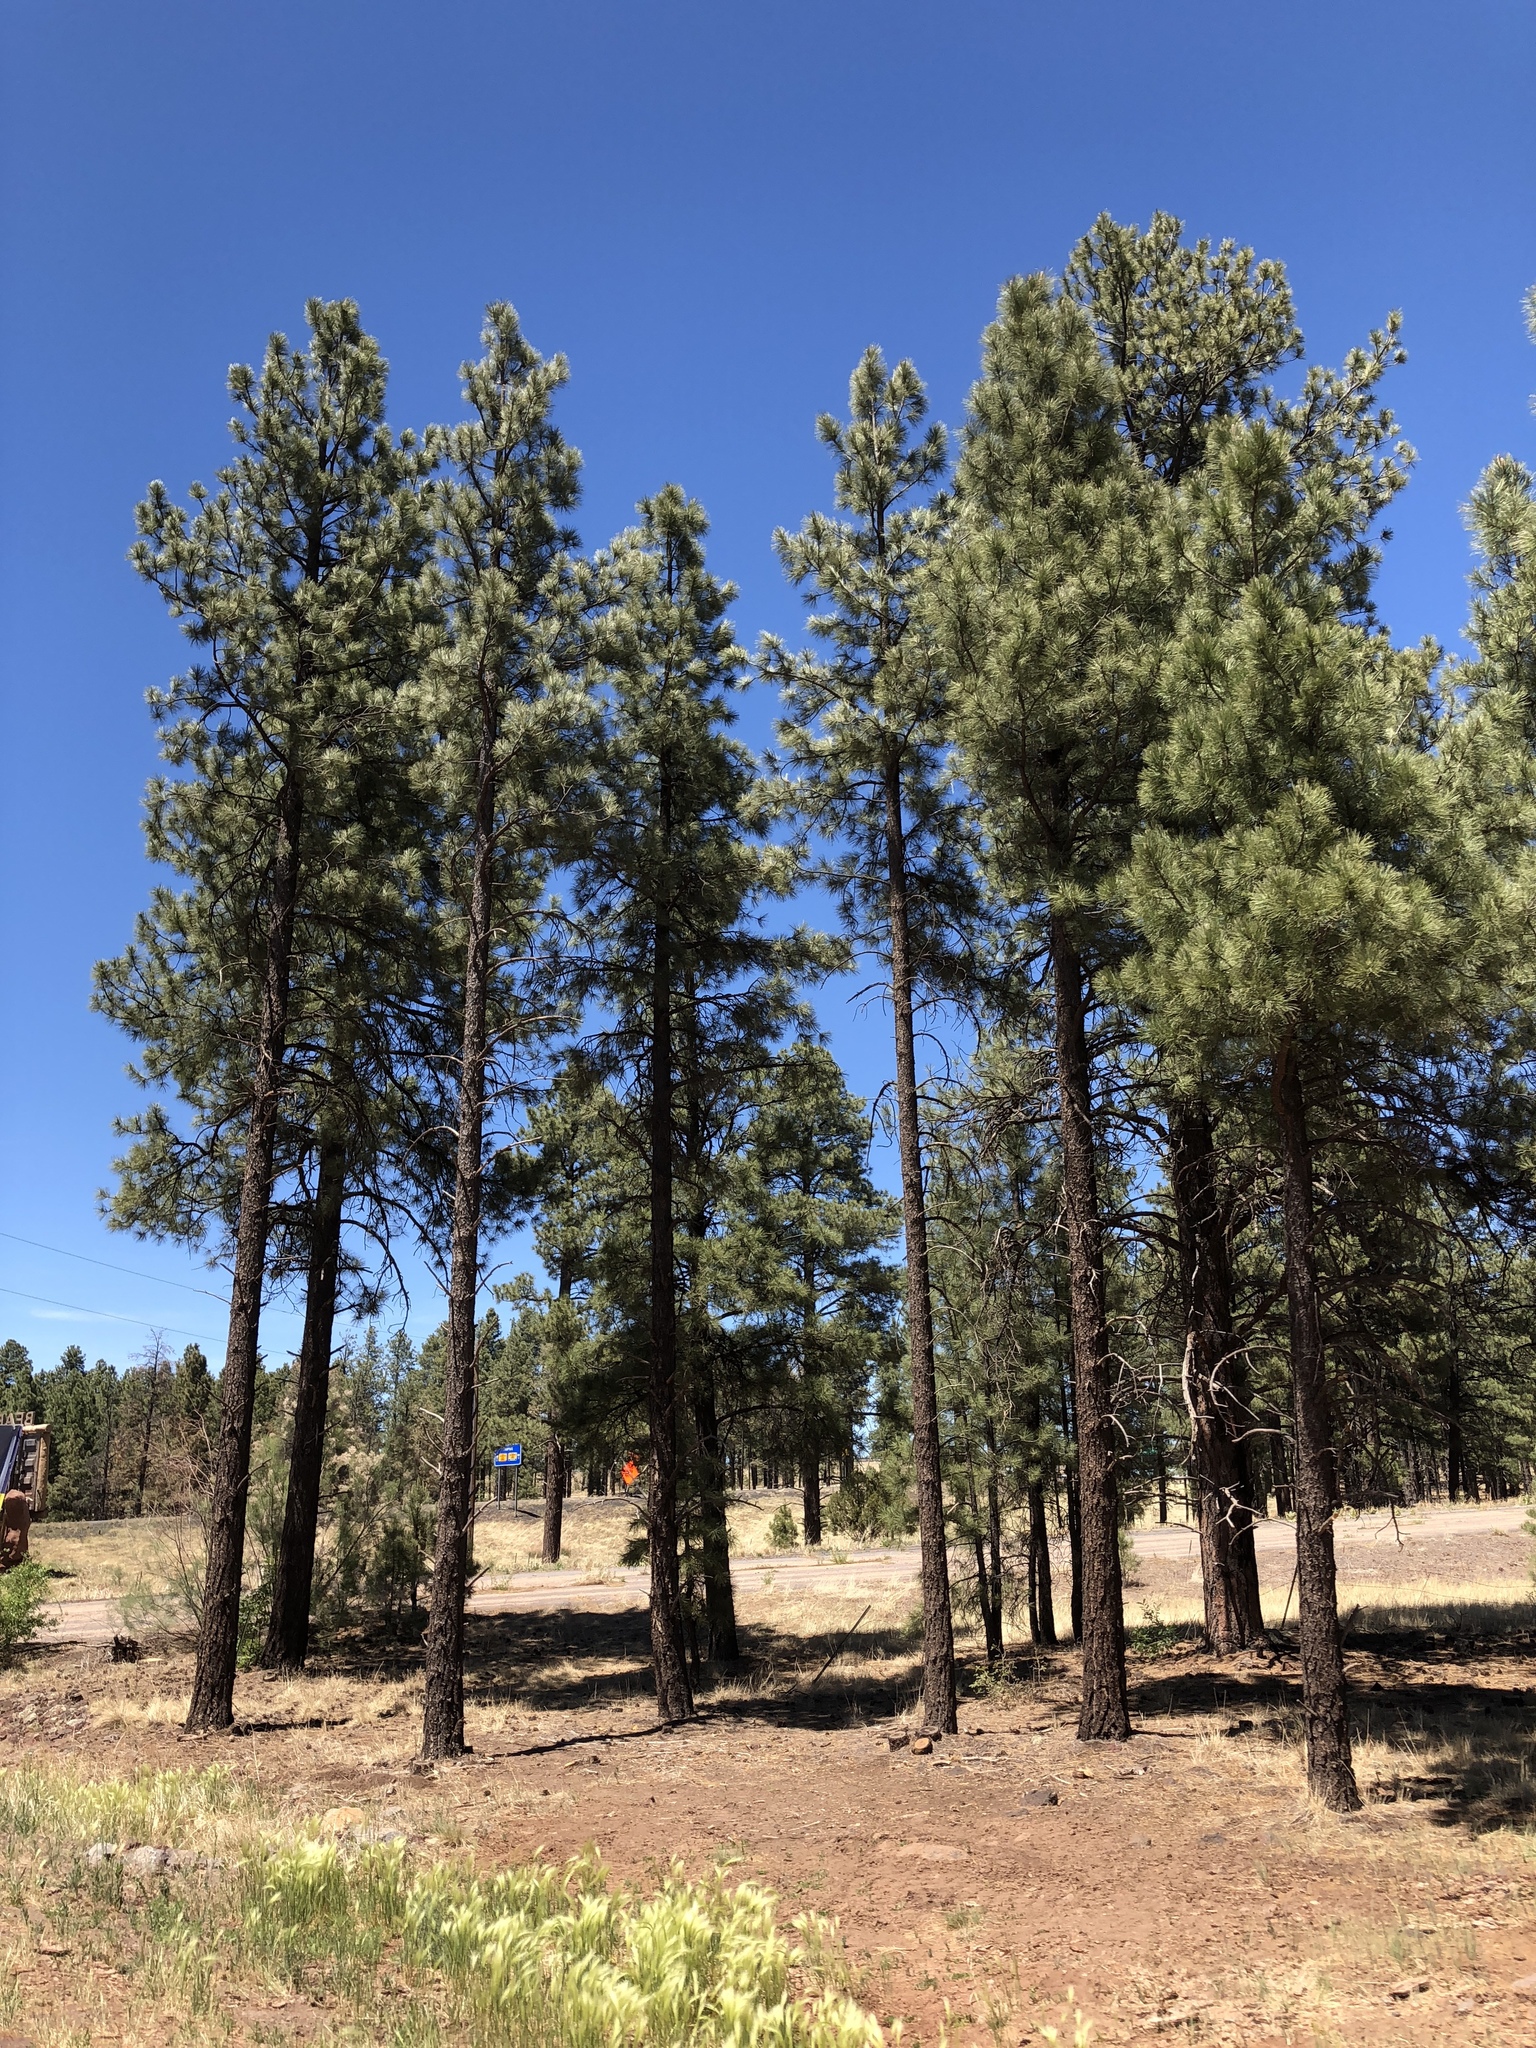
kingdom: Plantae
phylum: Tracheophyta
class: Pinopsida
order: Pinales
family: Pinaceae
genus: Pinus
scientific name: Pinus ponderosa
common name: Western yellow-pine
